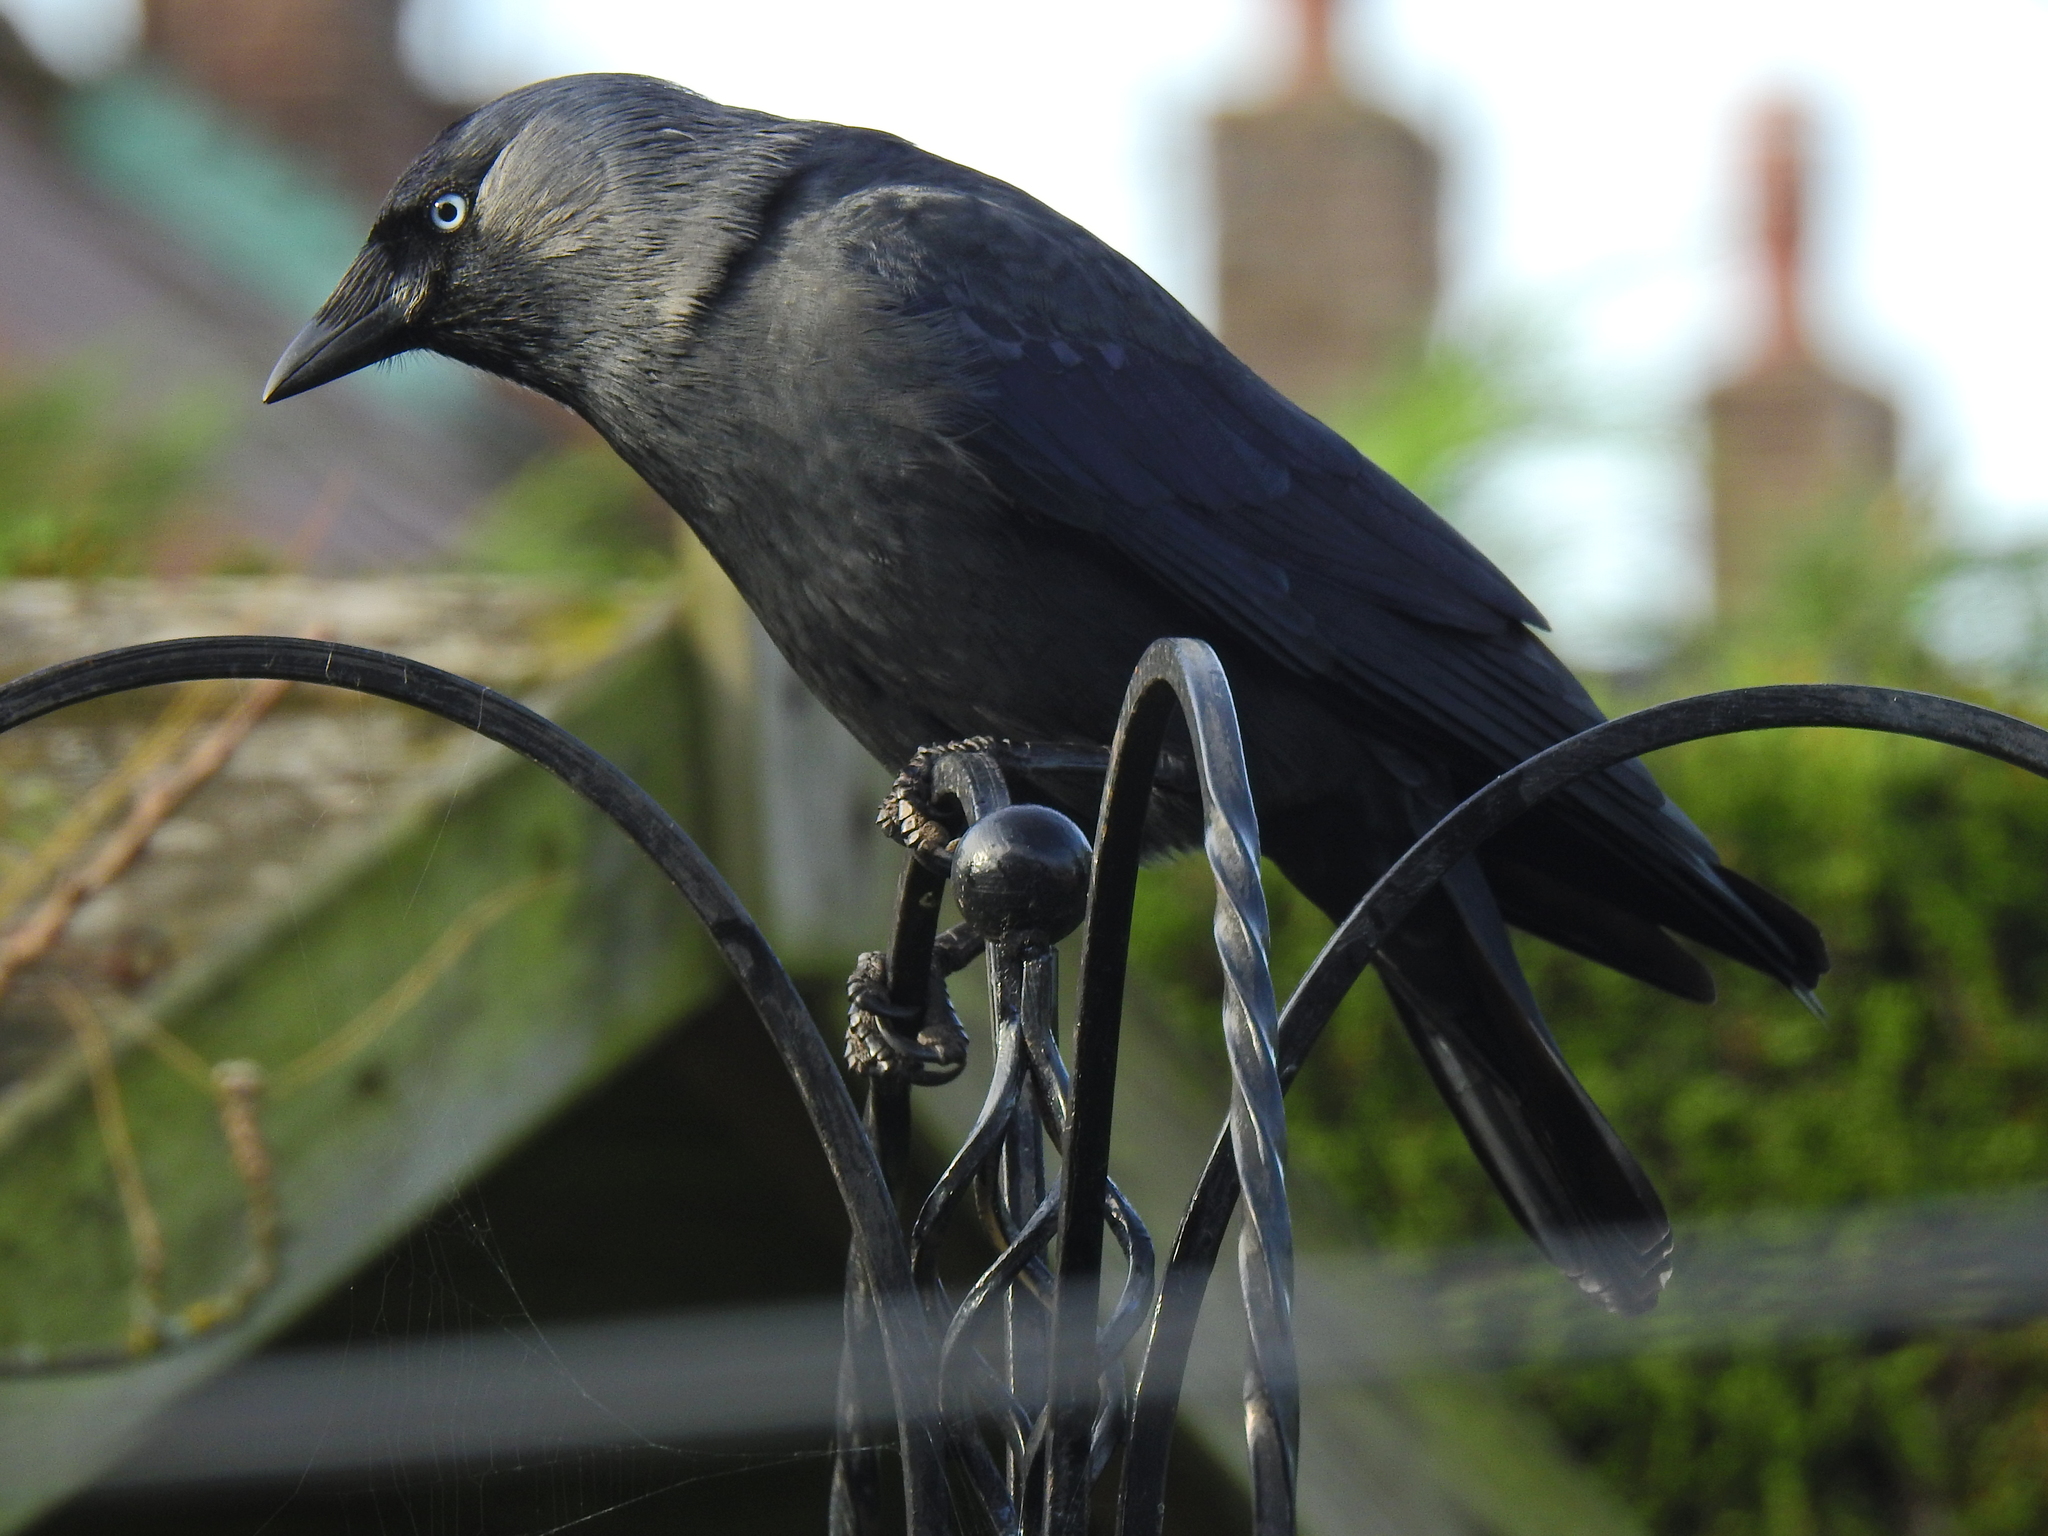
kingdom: Animalia
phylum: Chordata
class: Aves
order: Passeriformes
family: Corvidae
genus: Coloeus
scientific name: Coloeus monedula
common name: Western jackdaw
